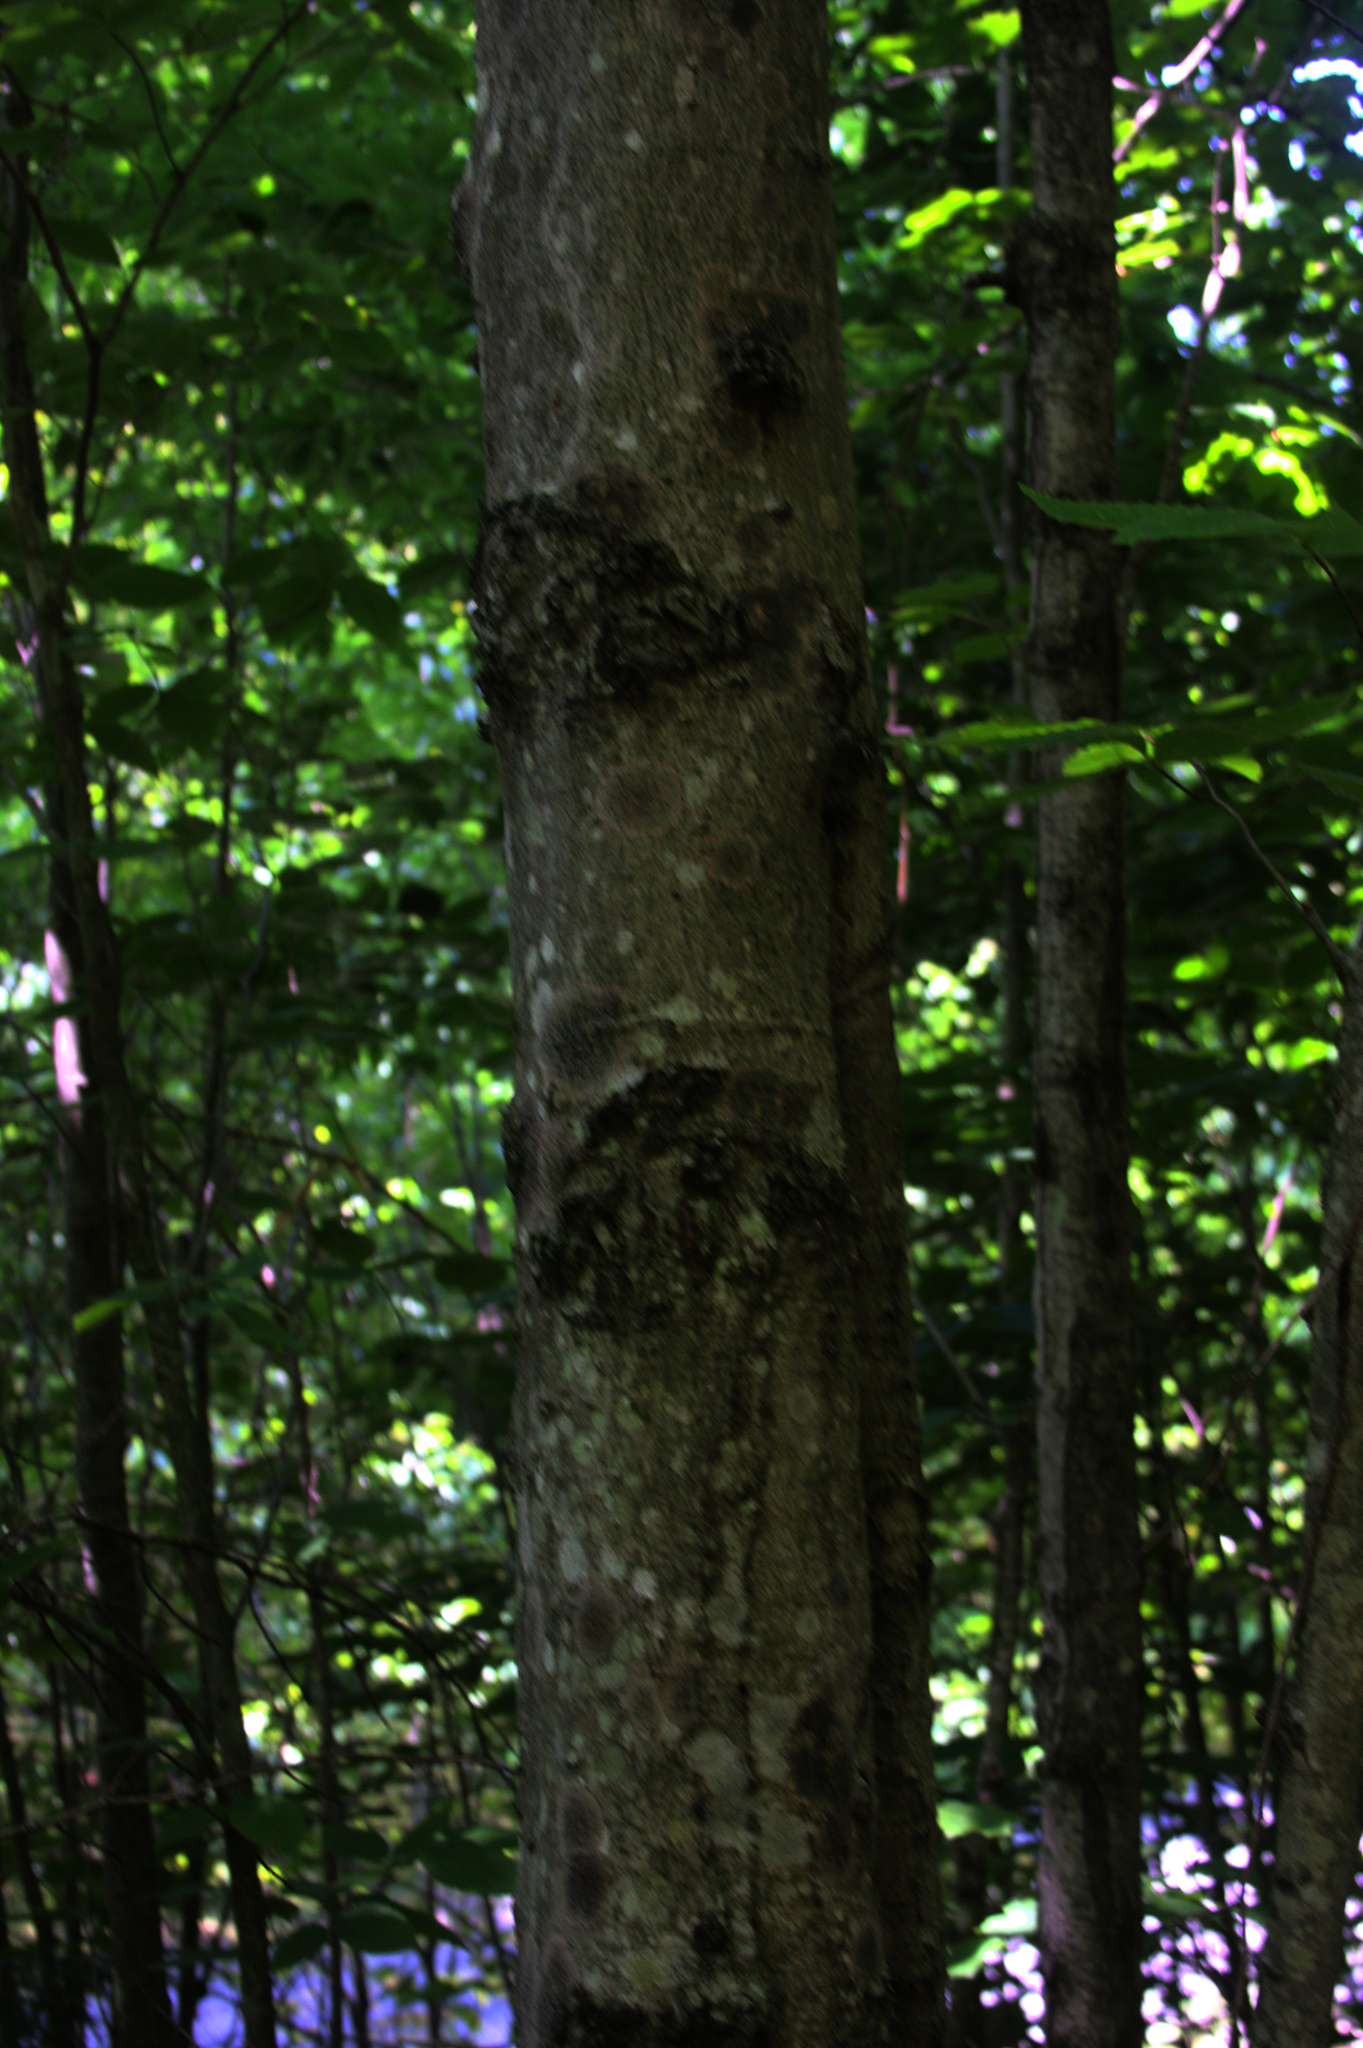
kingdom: Plantae
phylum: Tracheophyta
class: Magnoliopsida
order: Fagales
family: Fagaceae
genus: Fagus
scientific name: Fagus grandifolia
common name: American beech
